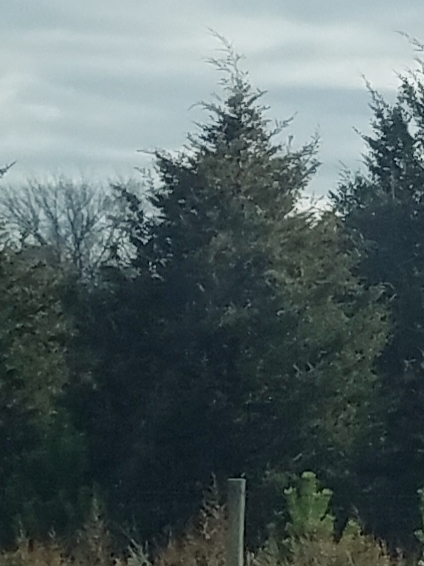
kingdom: Plantae
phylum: Tracheophyta
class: Pinopsida
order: Pinales
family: Cupressaceae
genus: Juniperus
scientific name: Juniperus virginiana
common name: Red juniper
